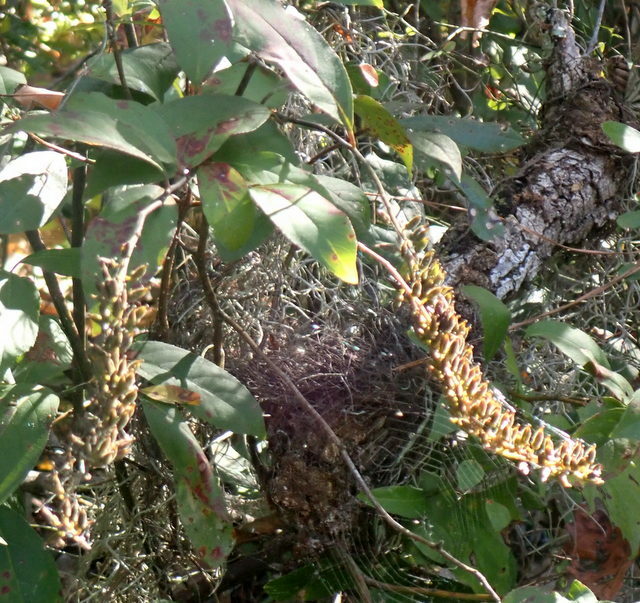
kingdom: Plantae
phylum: Tracheophyta
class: Magnoliopsida
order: Saxifragales
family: Iteaceae
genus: Itea
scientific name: Itea virginica
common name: Sweetspire
